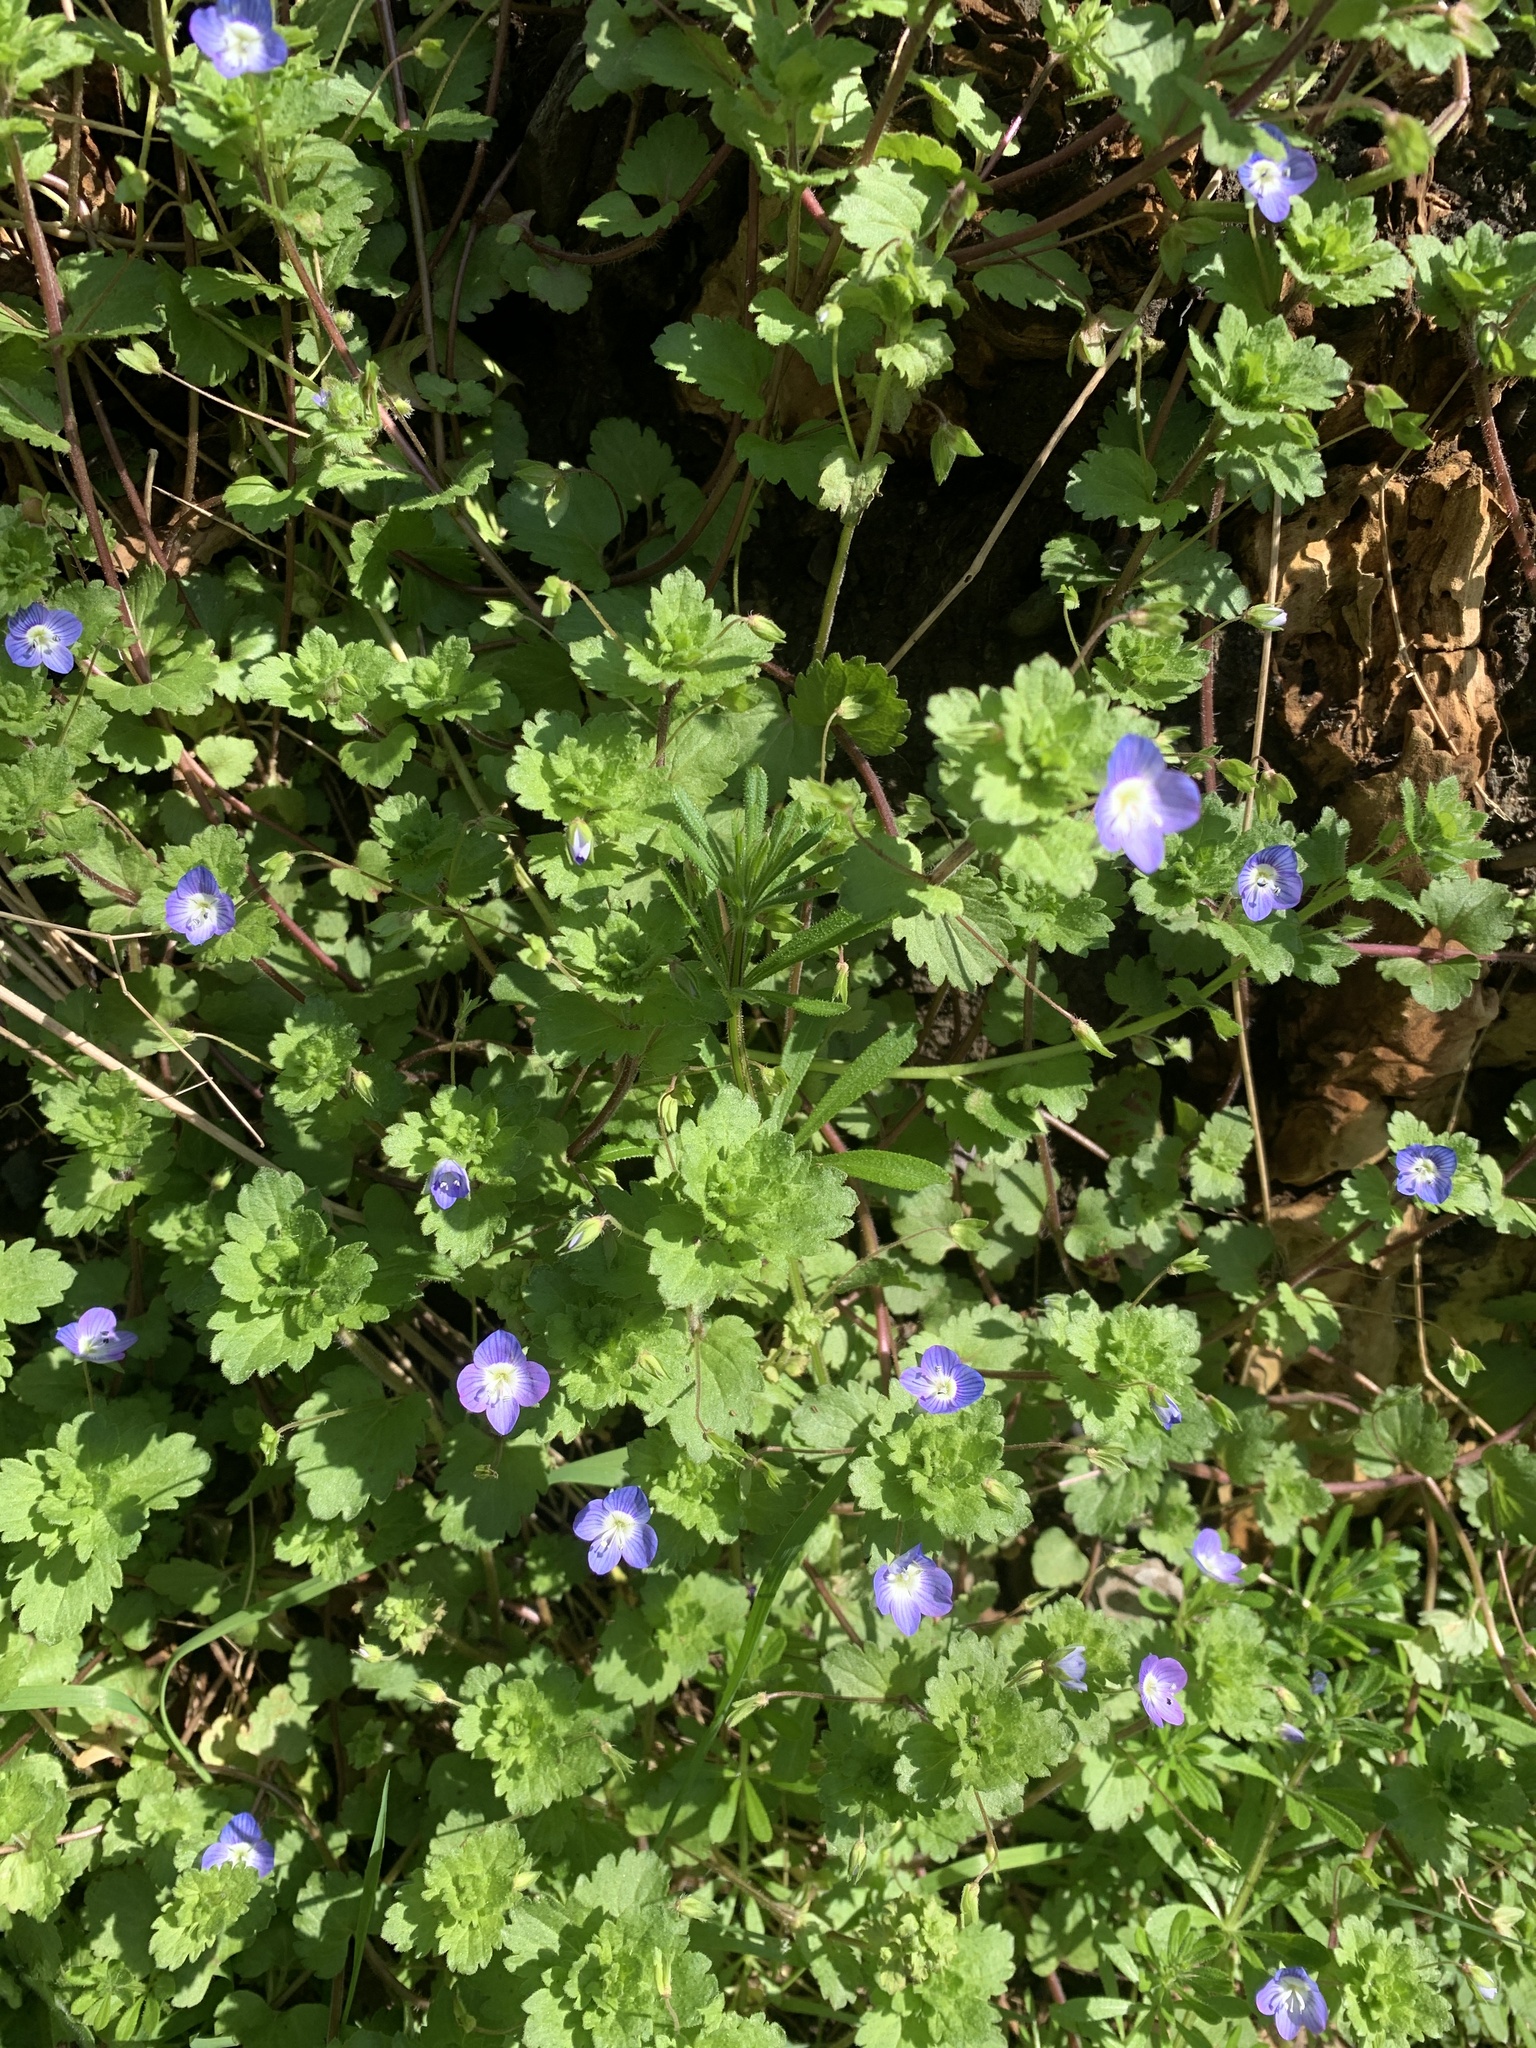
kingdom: Plantae
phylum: Tracheophyta
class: Magnoliopsida
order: Lamiales
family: Plantaginaceae
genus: Veronica
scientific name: Veronica persica
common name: Common field-speedwell
